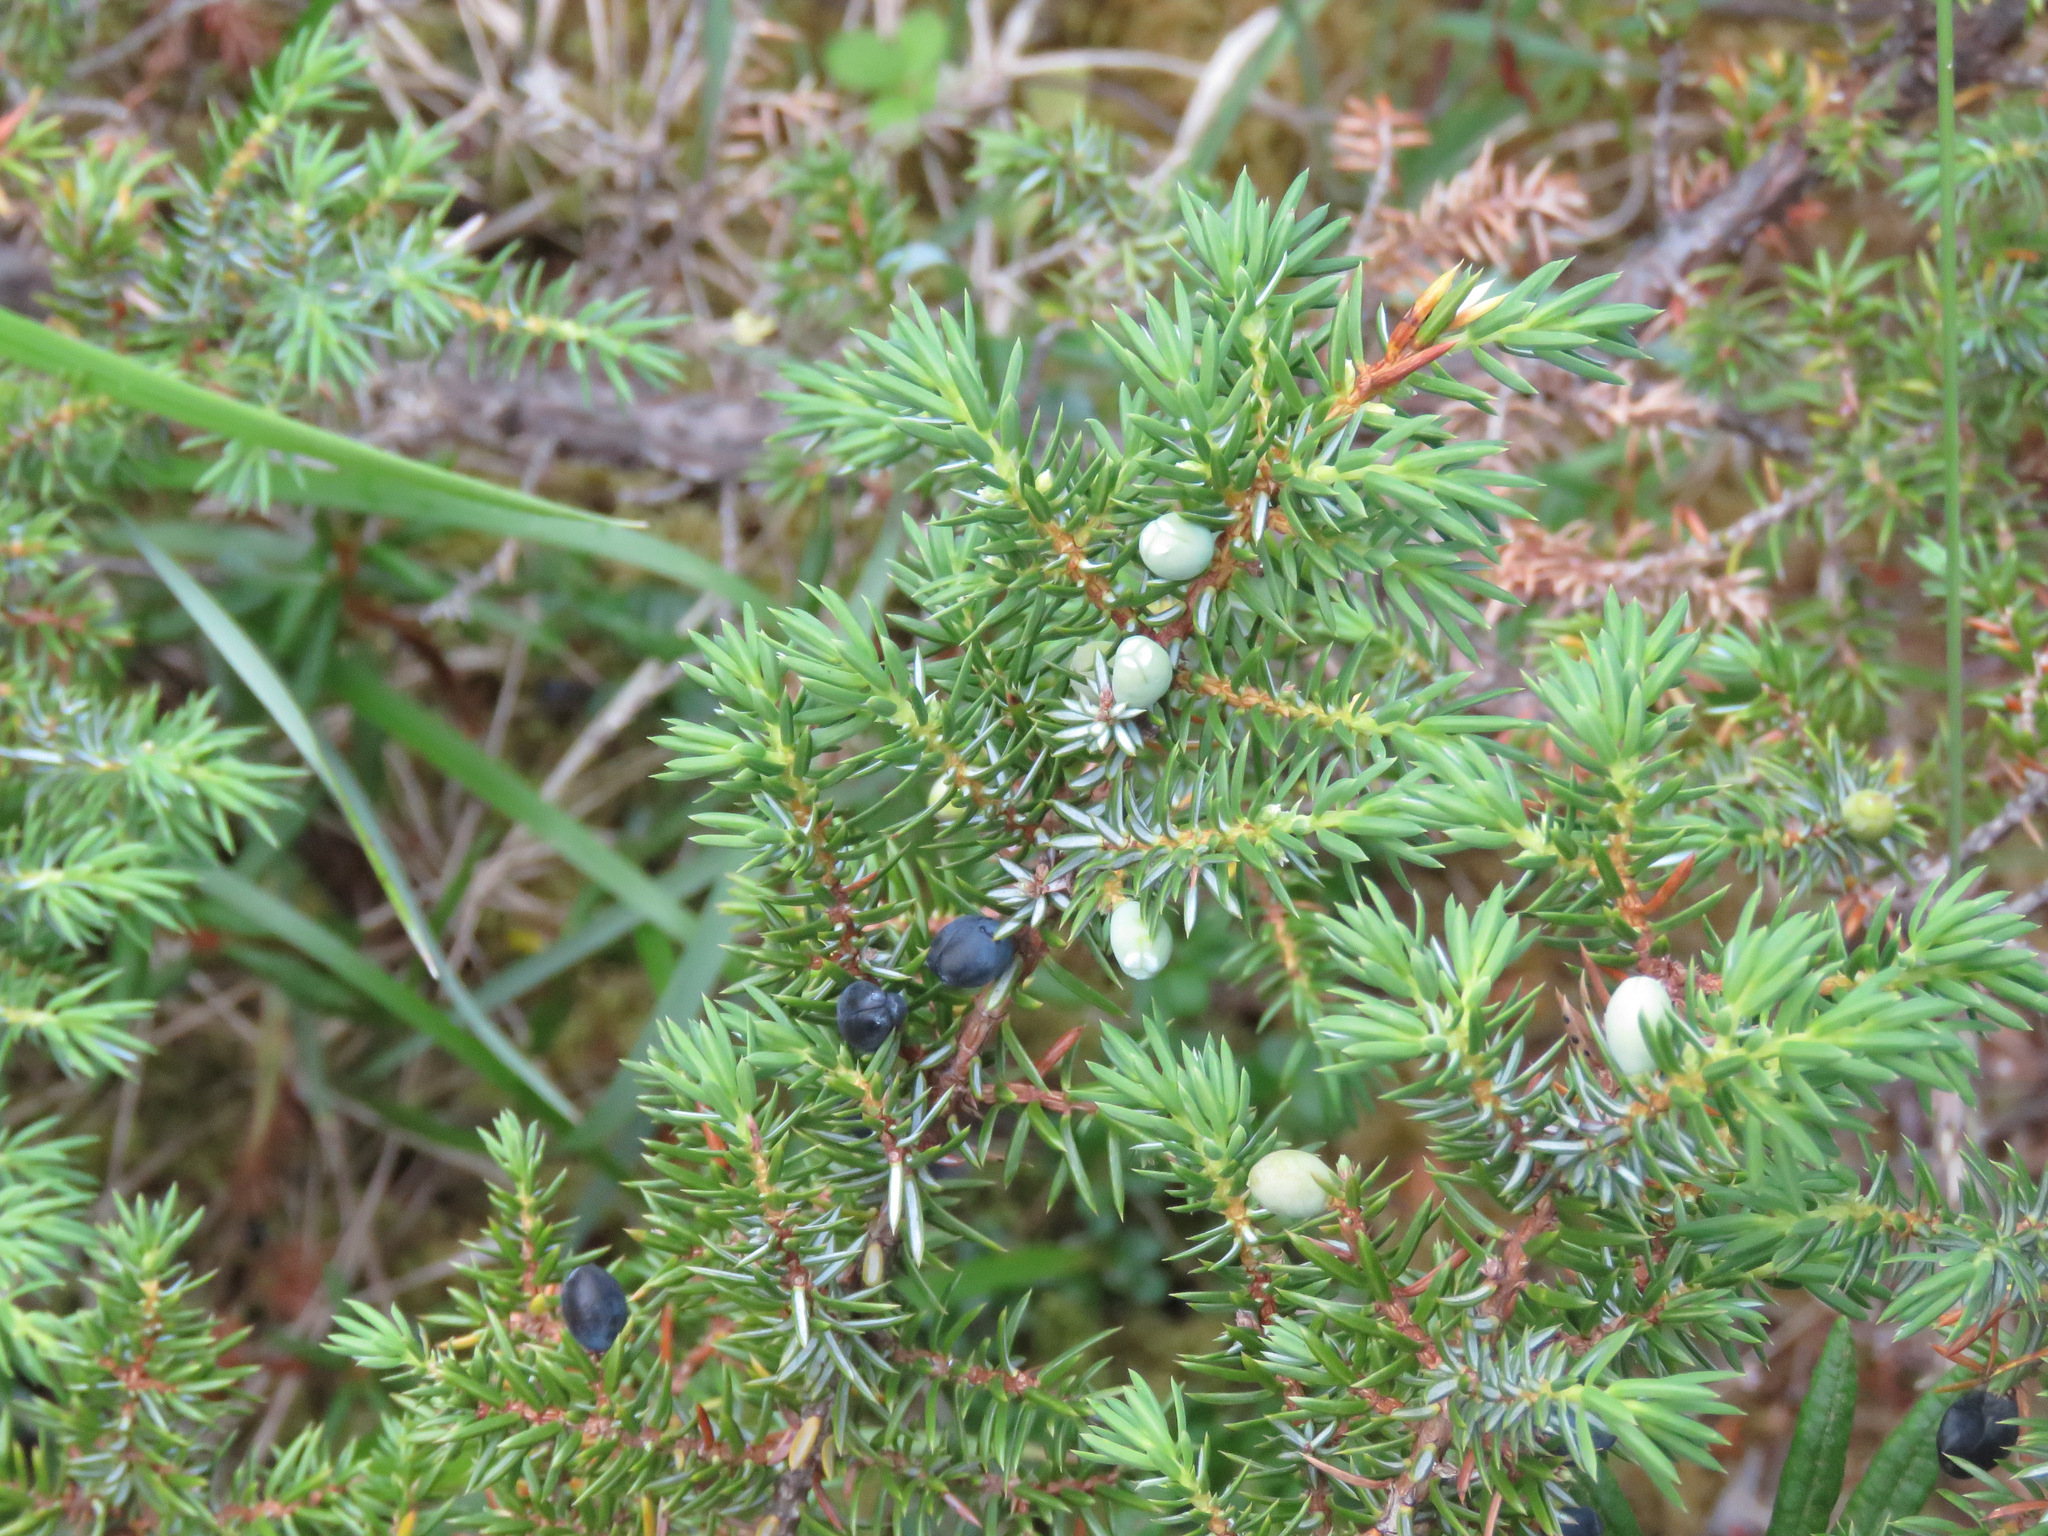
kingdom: Plantae
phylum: Tracheophyta
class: Pinopsida
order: Pinales
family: Cupressaceae
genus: Juniperus
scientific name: Juniperus communis
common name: Common juniper
